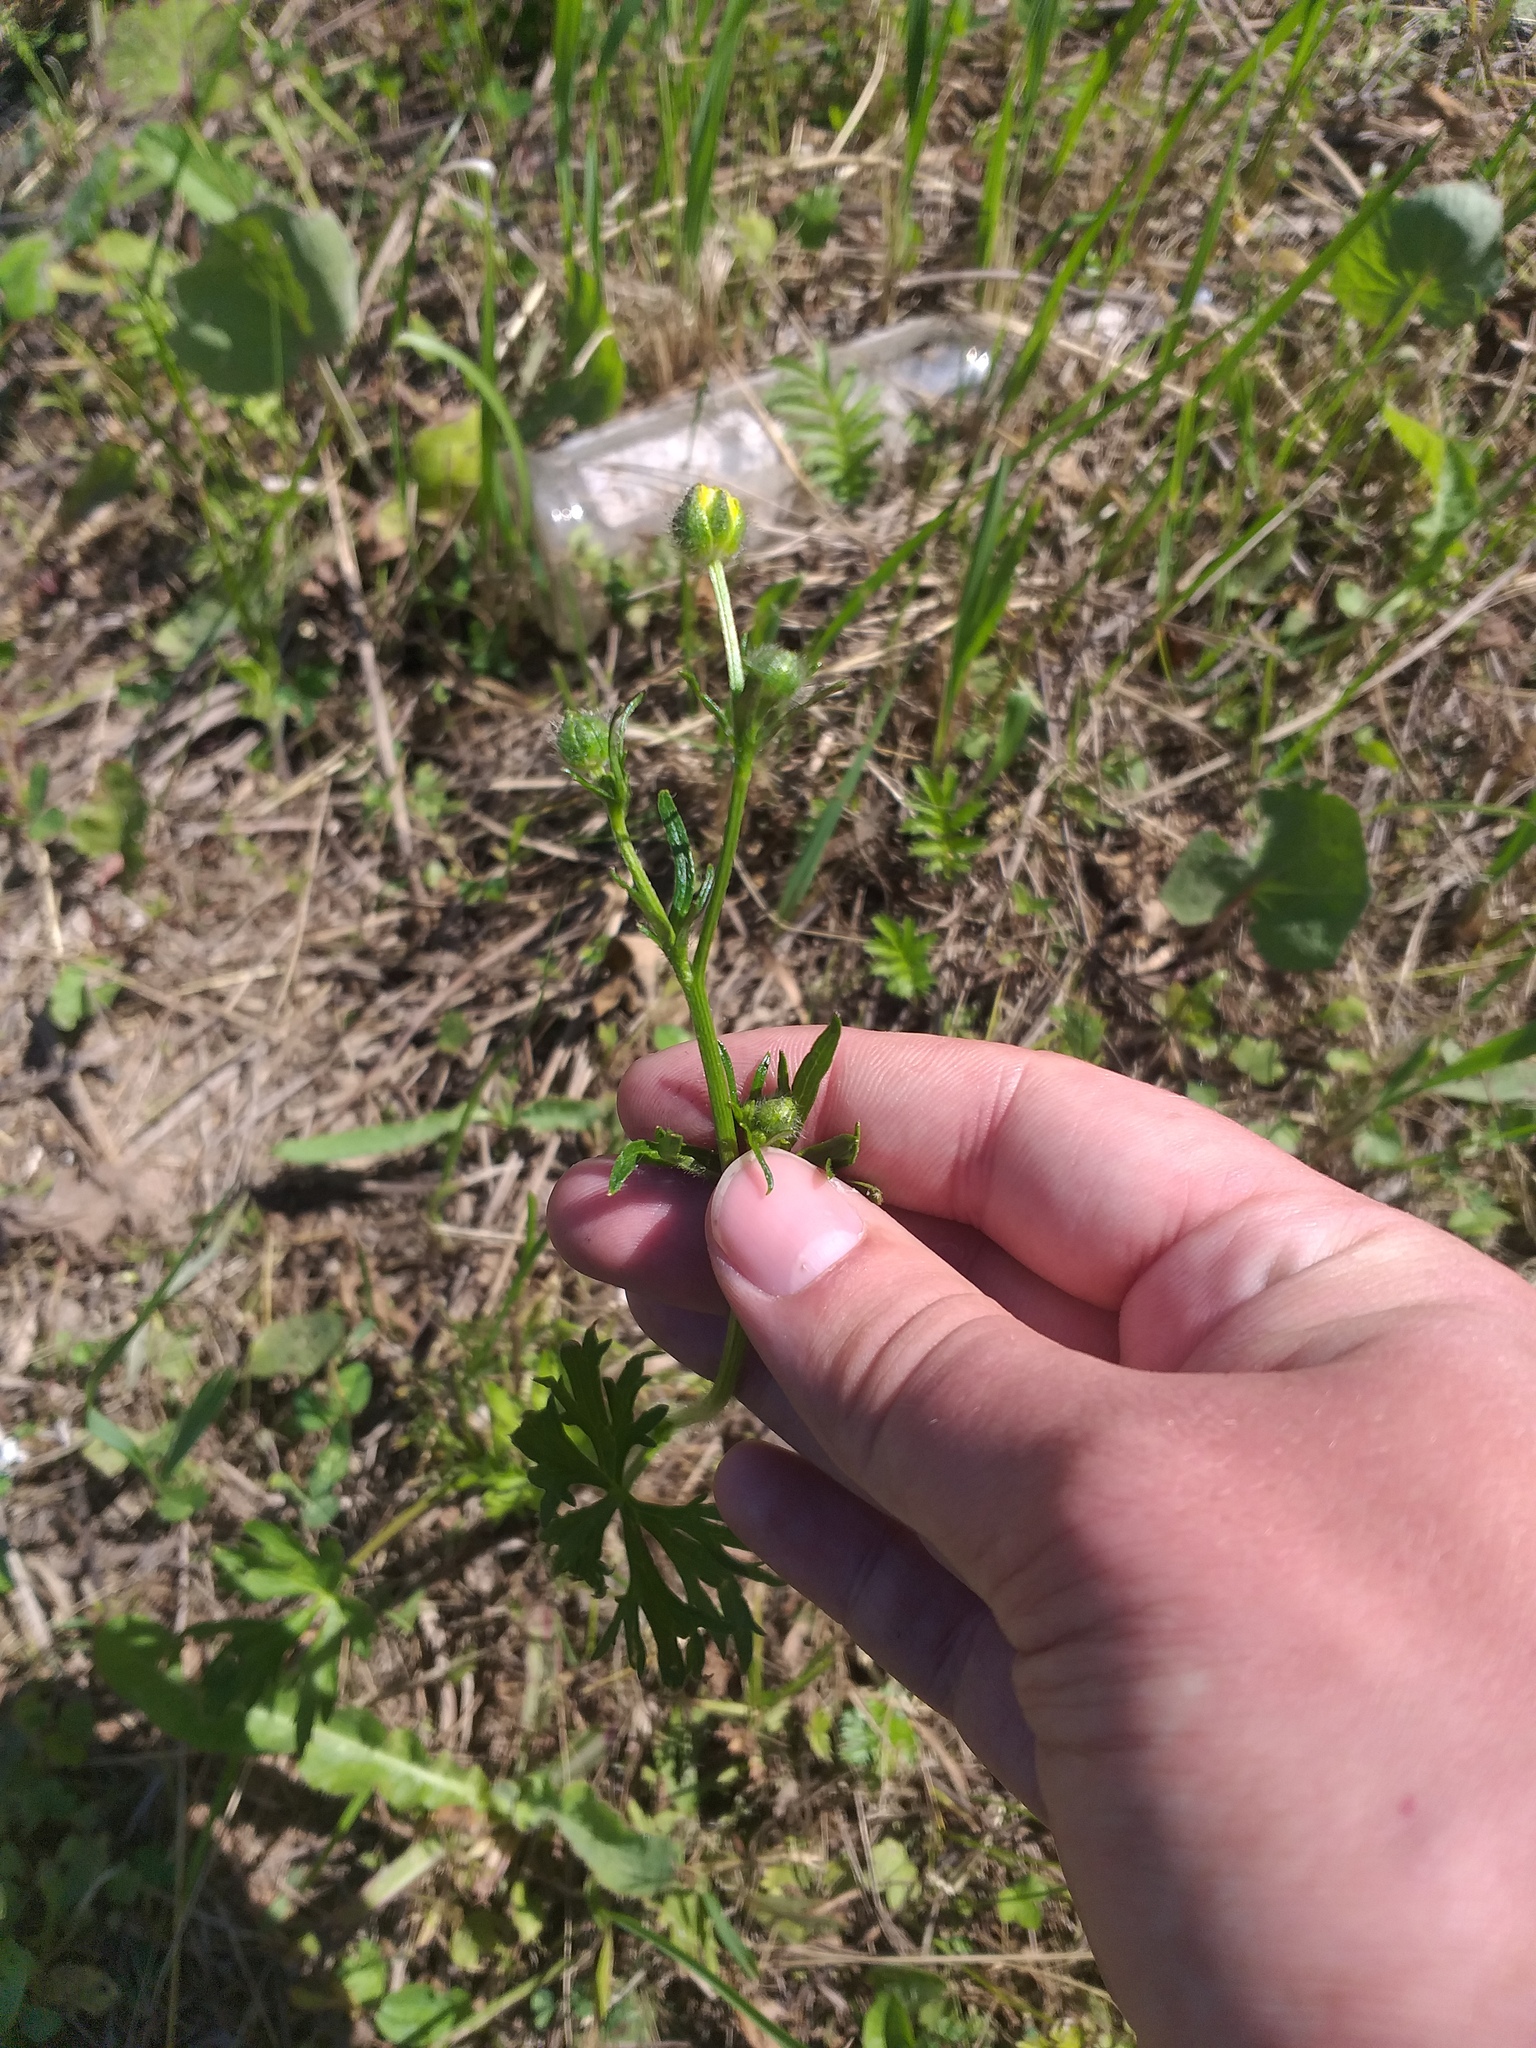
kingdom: Plantae
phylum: Tracheophyta
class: Magnoliopsida
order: Ranunculales
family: Ranunculaceae
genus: Ranunculus
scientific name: Ranunculus polyanthemos
